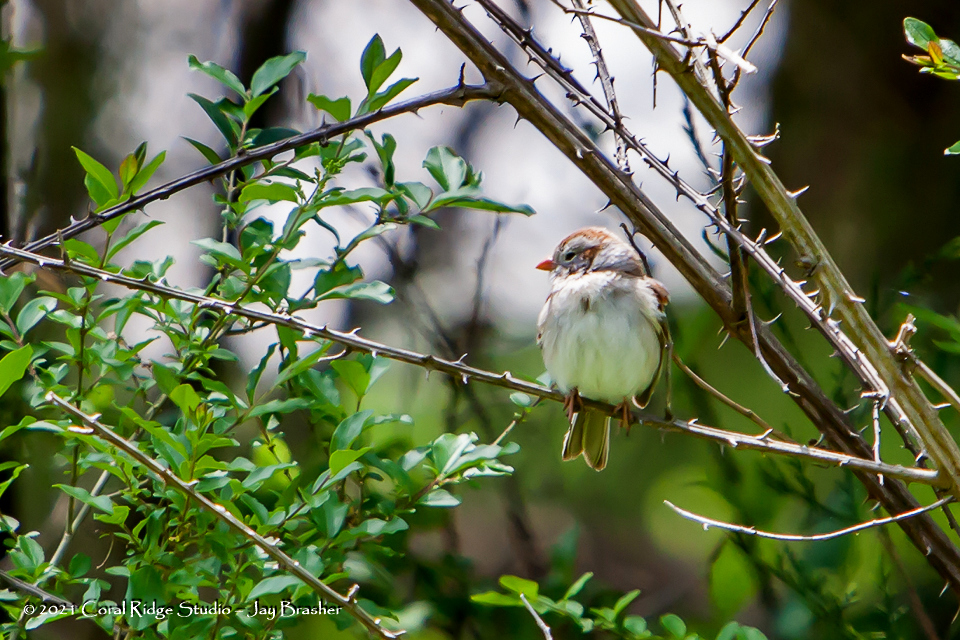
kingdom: Animalia
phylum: Chordata
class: Aves
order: Passeriformes
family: Passerellidae
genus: Spizella
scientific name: Spizella pusilla
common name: Field sparrow
